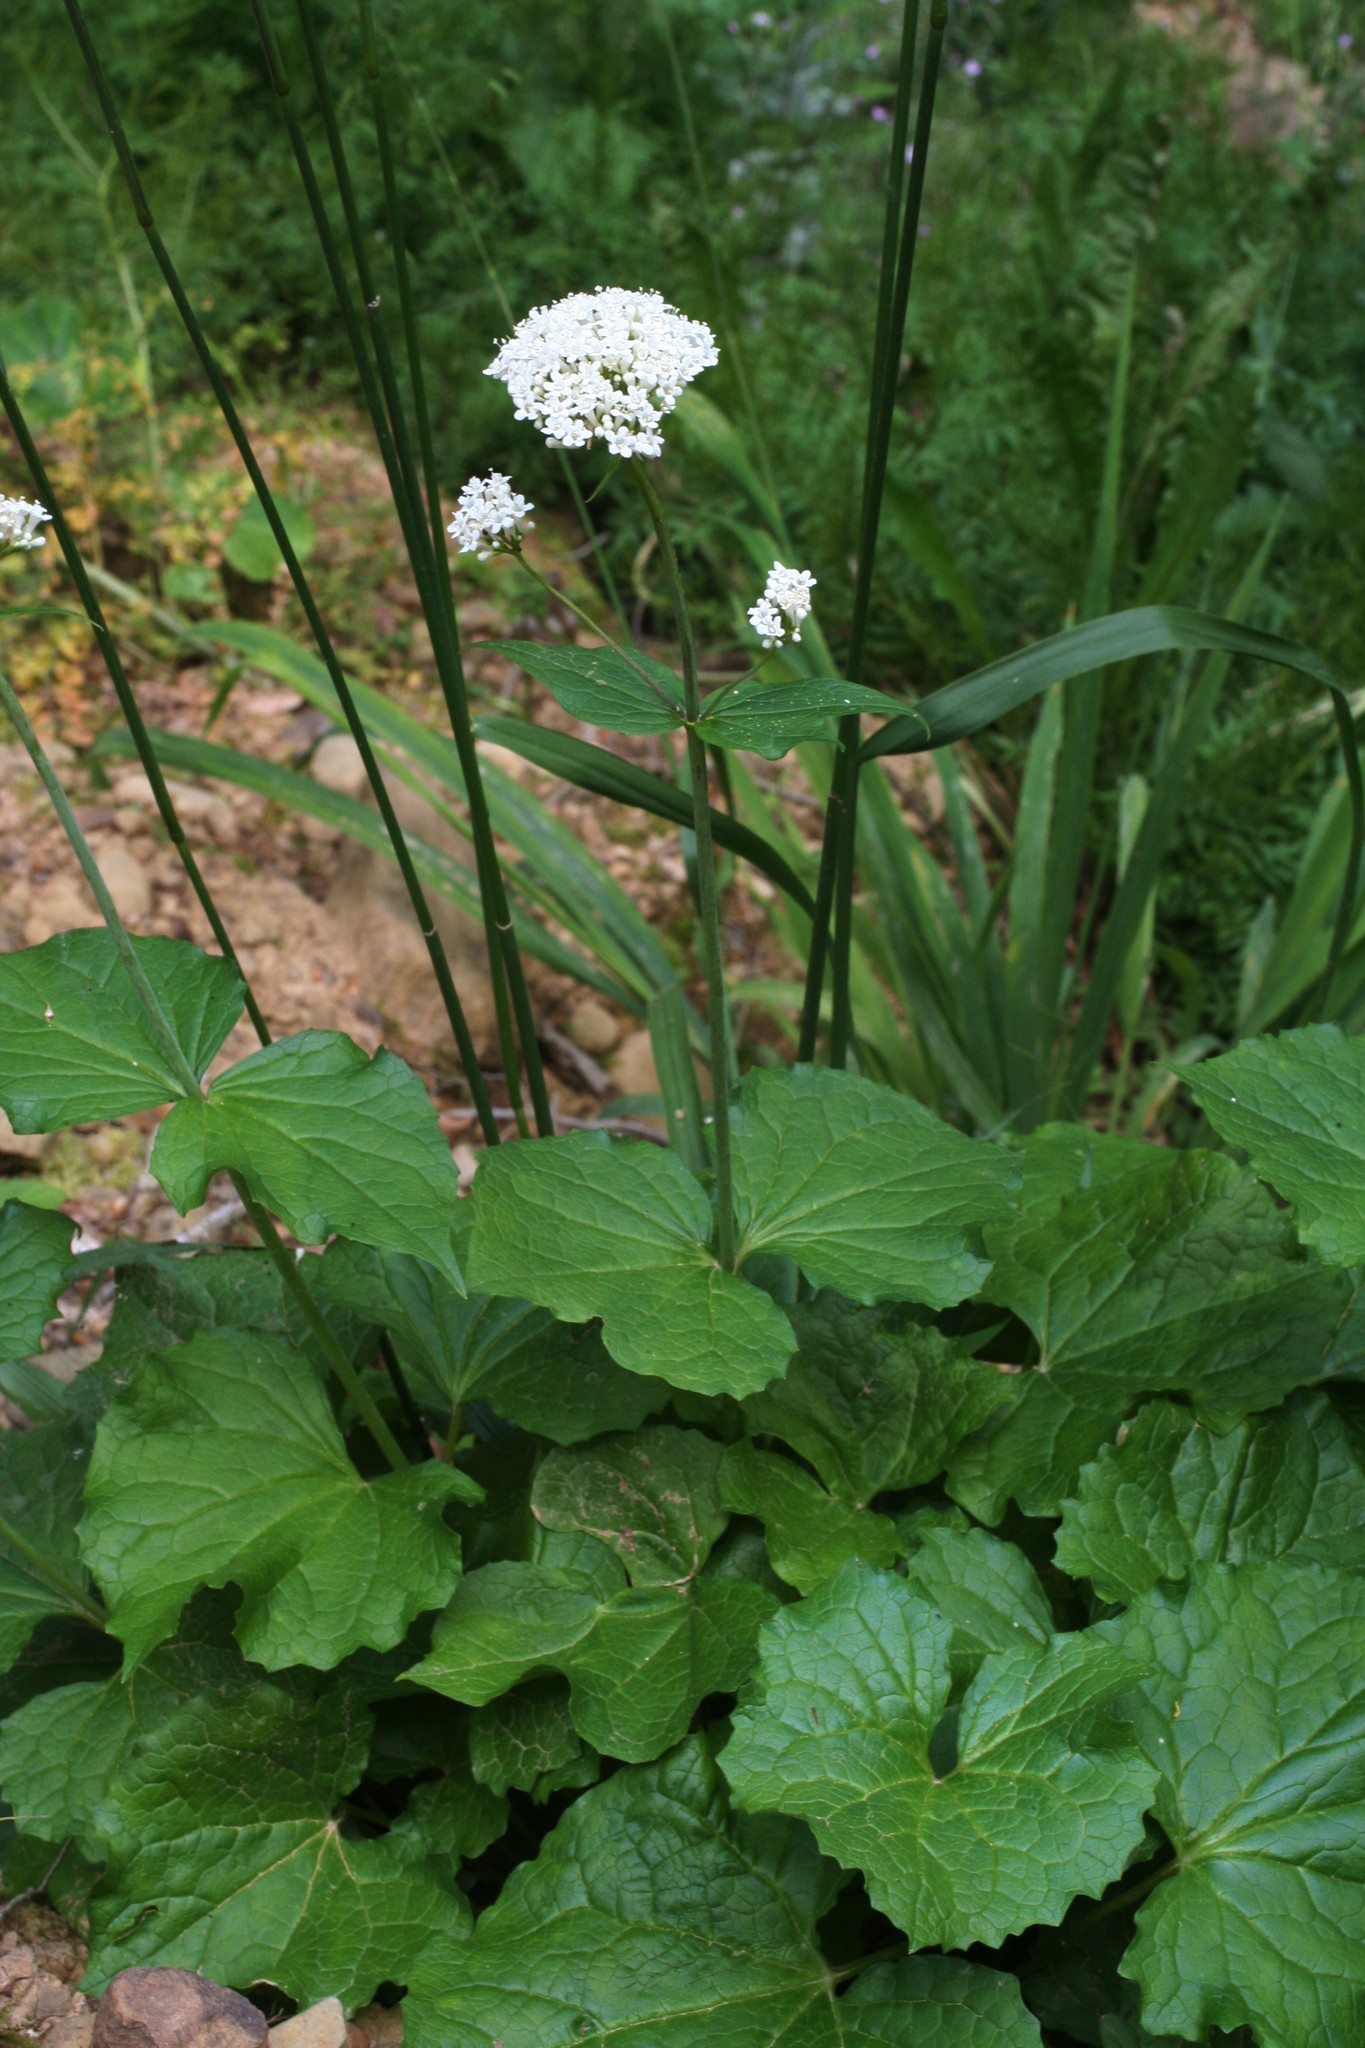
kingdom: Plantae
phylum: Tracheophyta
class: Magnoliopsida
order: Dipsacales
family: Caprifoliaceae
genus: Valeriana
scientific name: Valeriana alliariifolia
